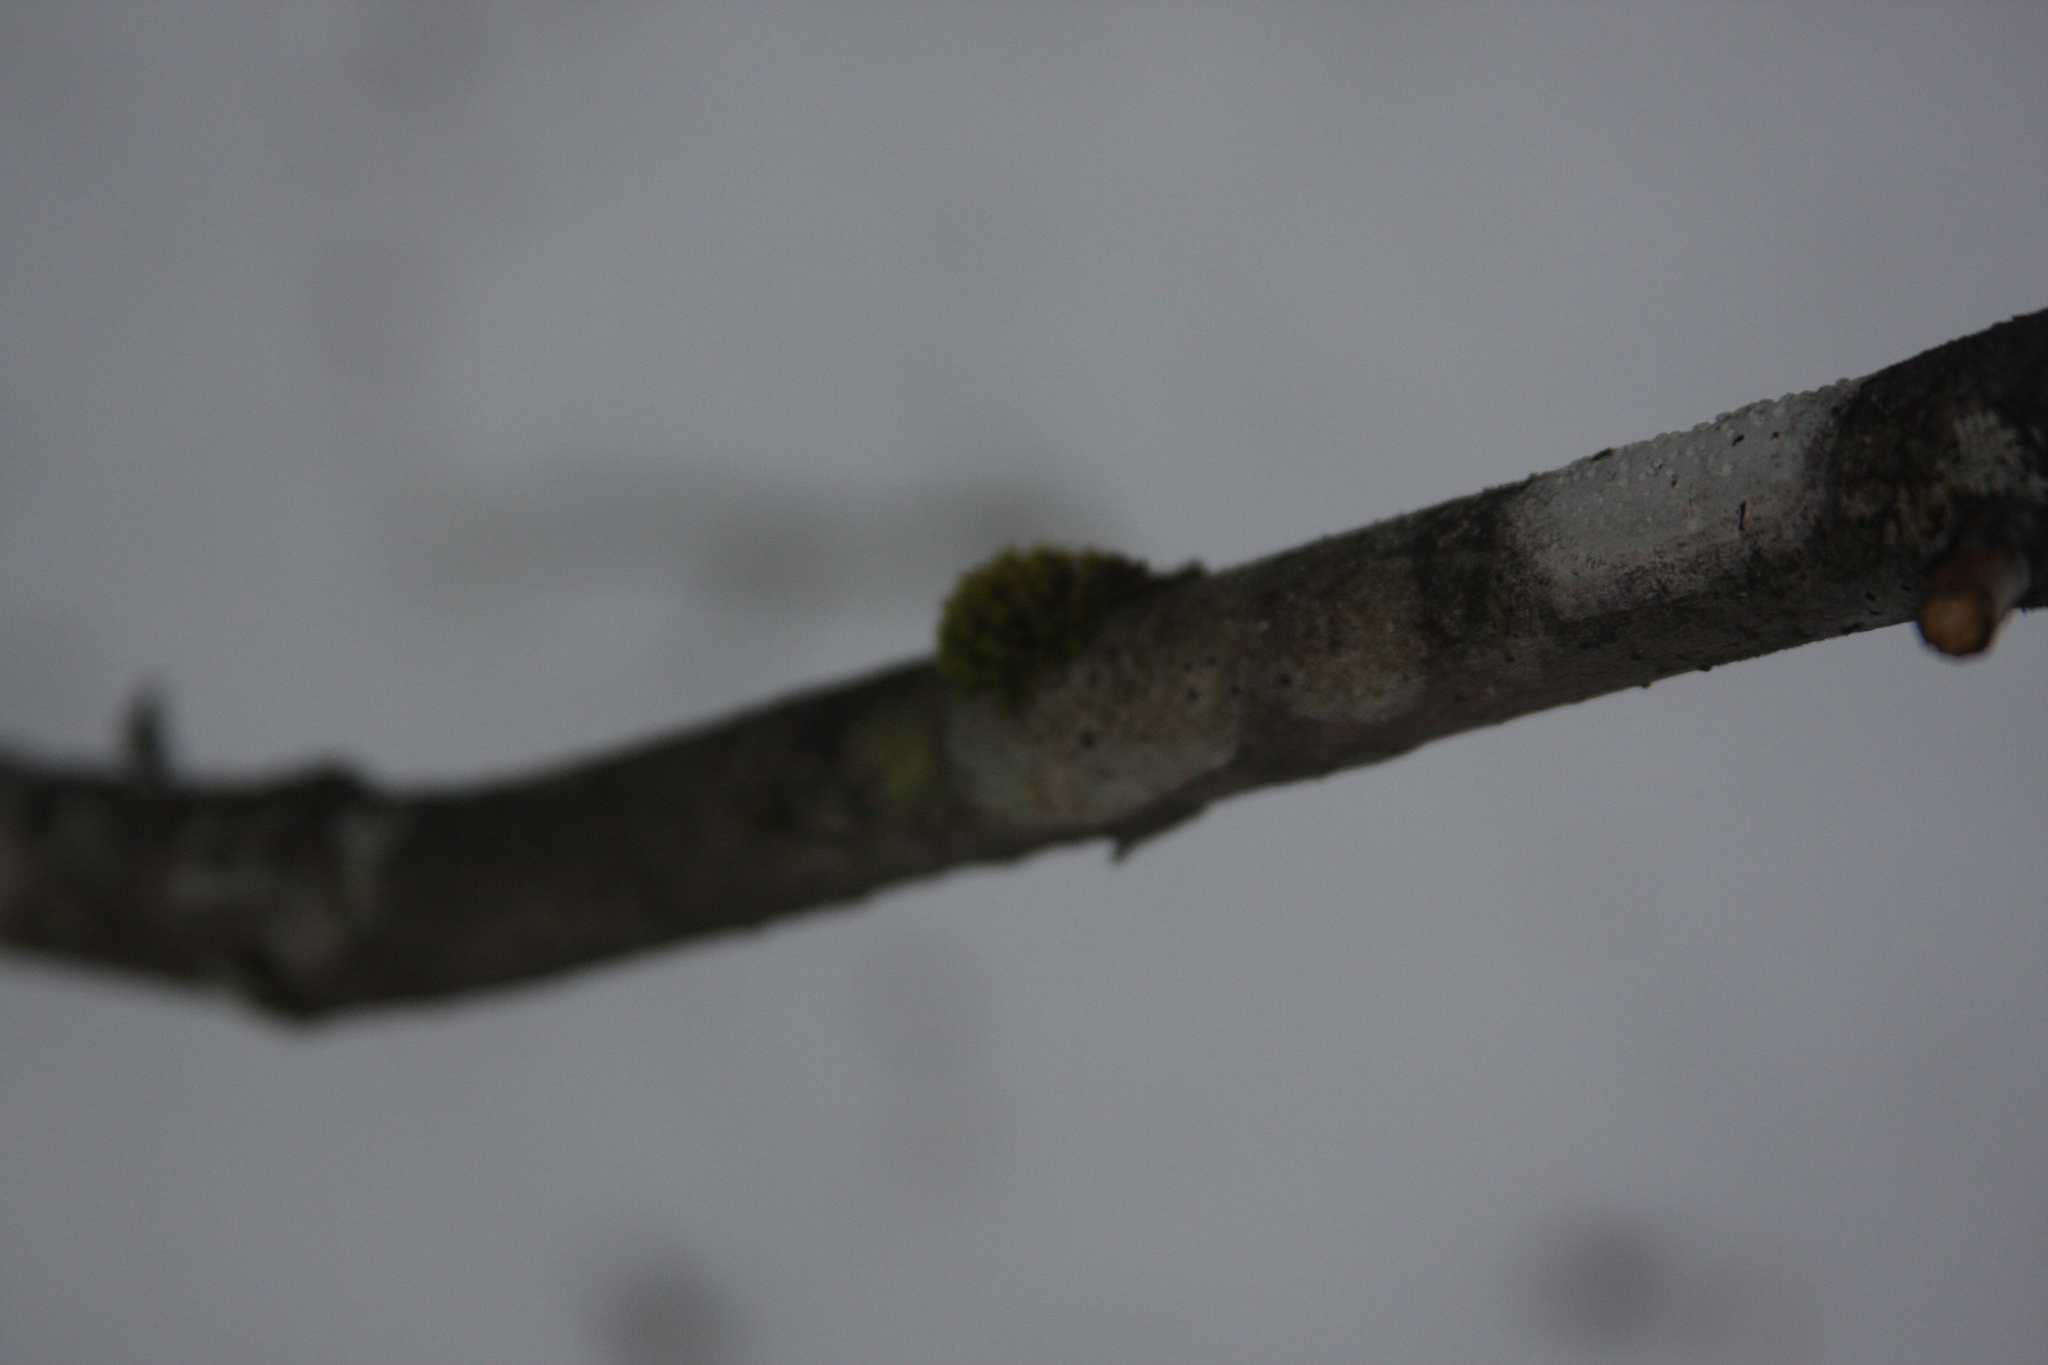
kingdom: Plantae
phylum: Bryophyta
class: Bryopsida
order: Orthotrichales
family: Orthotrichaceae
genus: Ulota
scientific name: Ulota crispa
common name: Crisped pincushion moss
